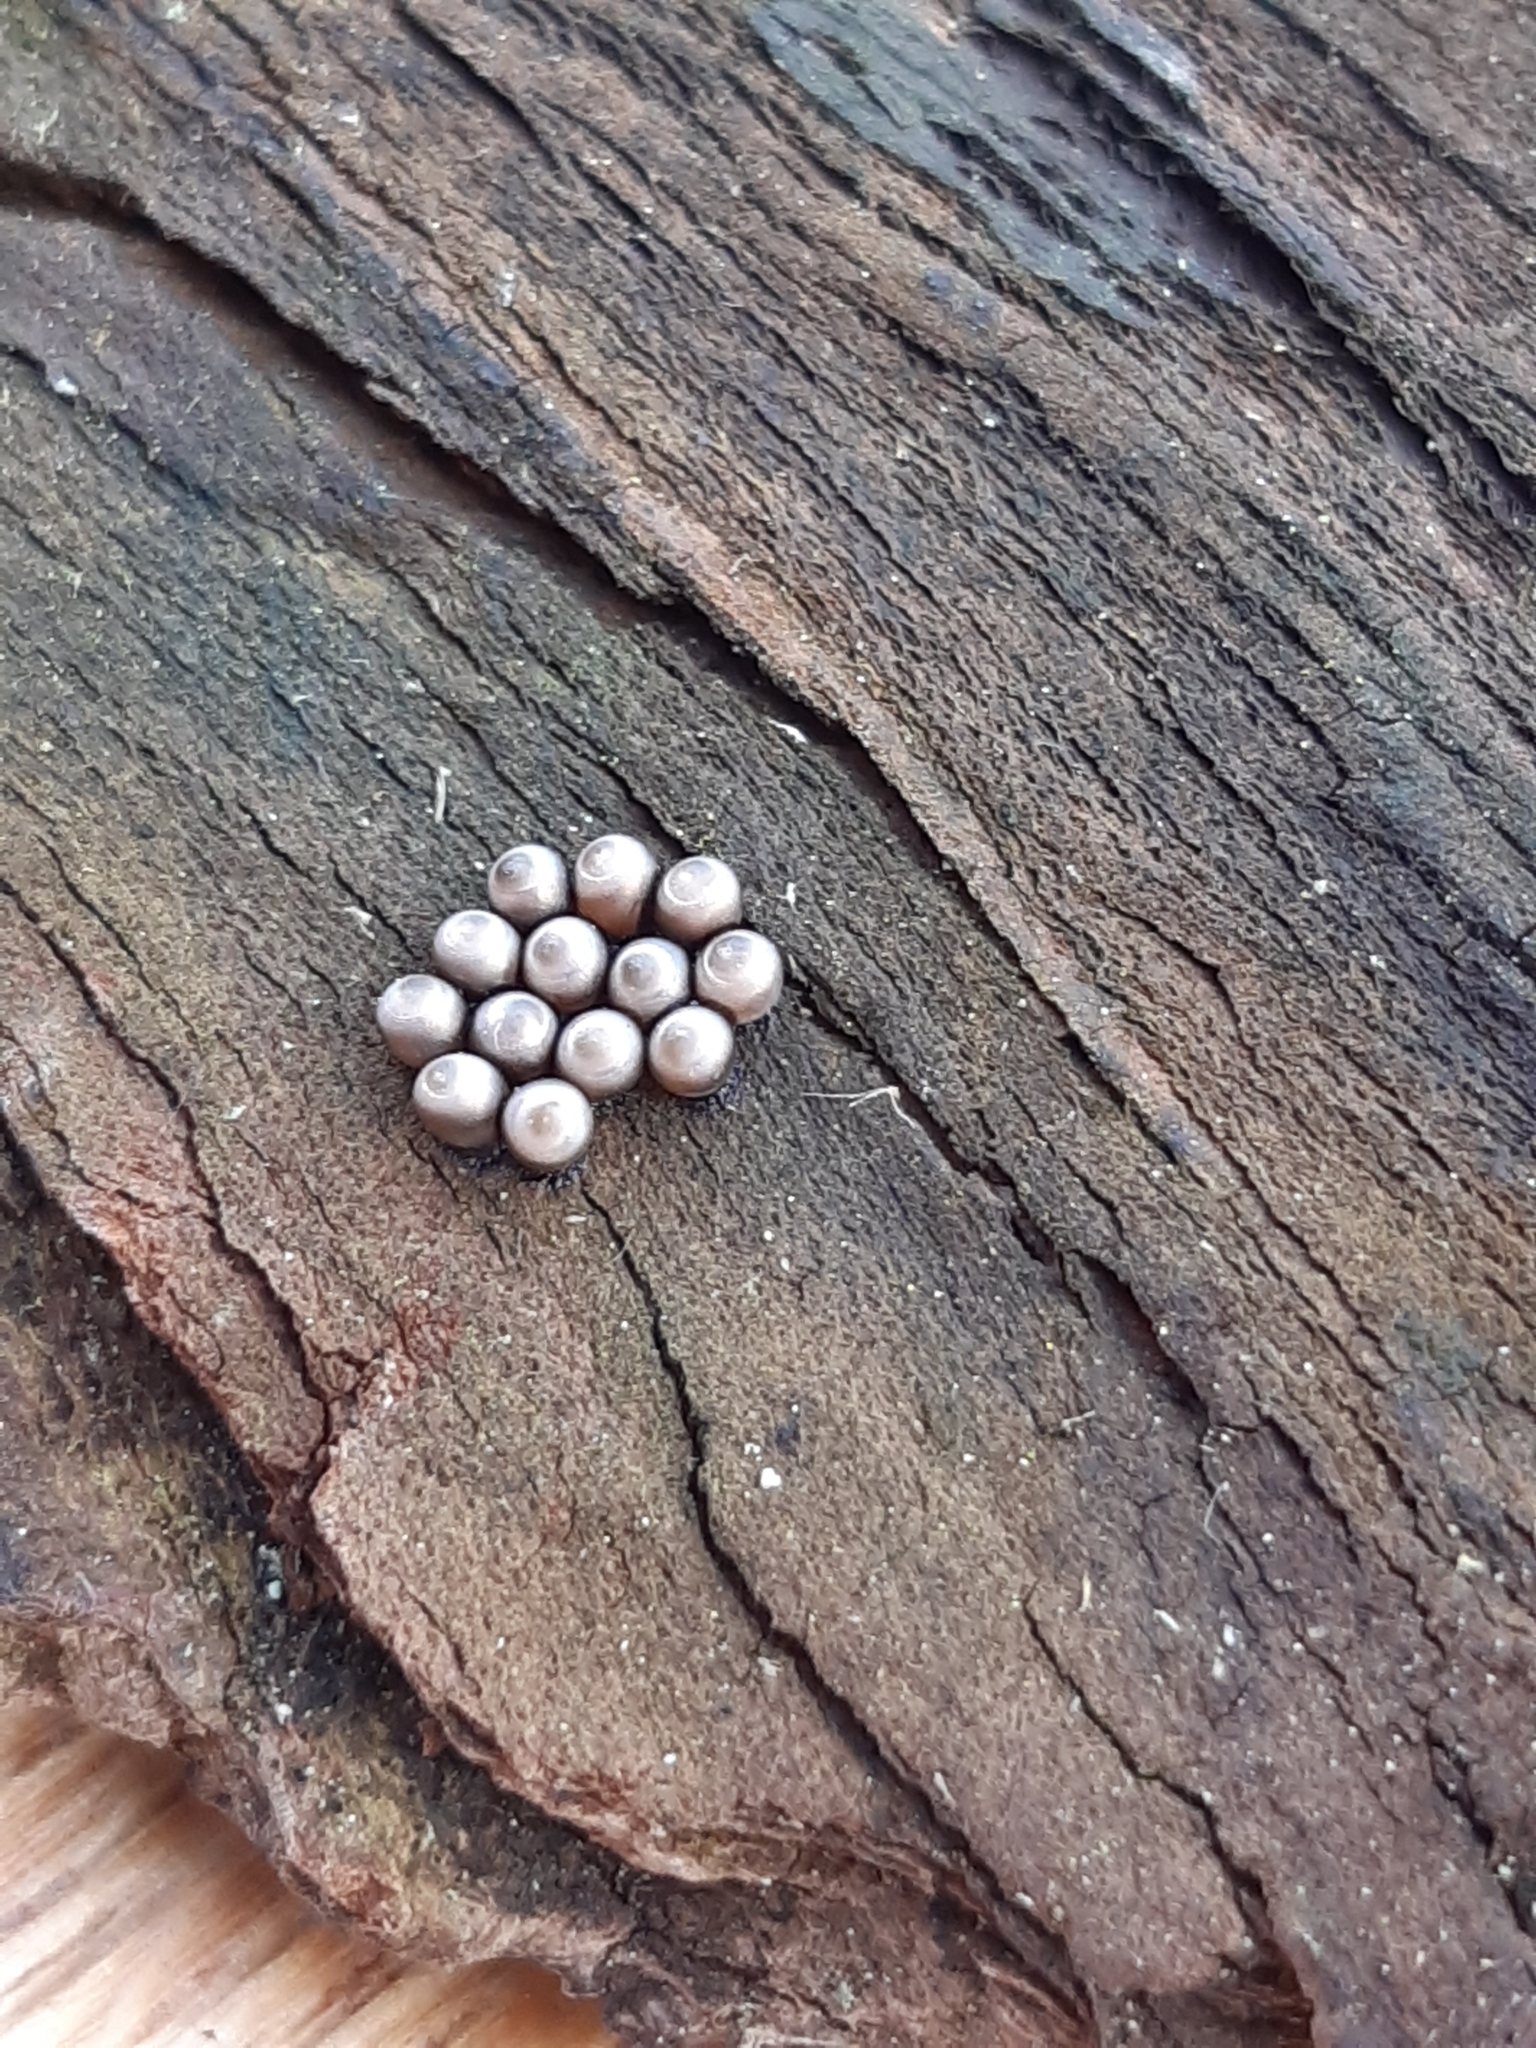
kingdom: Animalia
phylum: Arthropoda
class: Insecta
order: Hemiptera
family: Pentatomidae
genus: Rhaphigaster
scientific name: Rhaphigaster nebulosa
